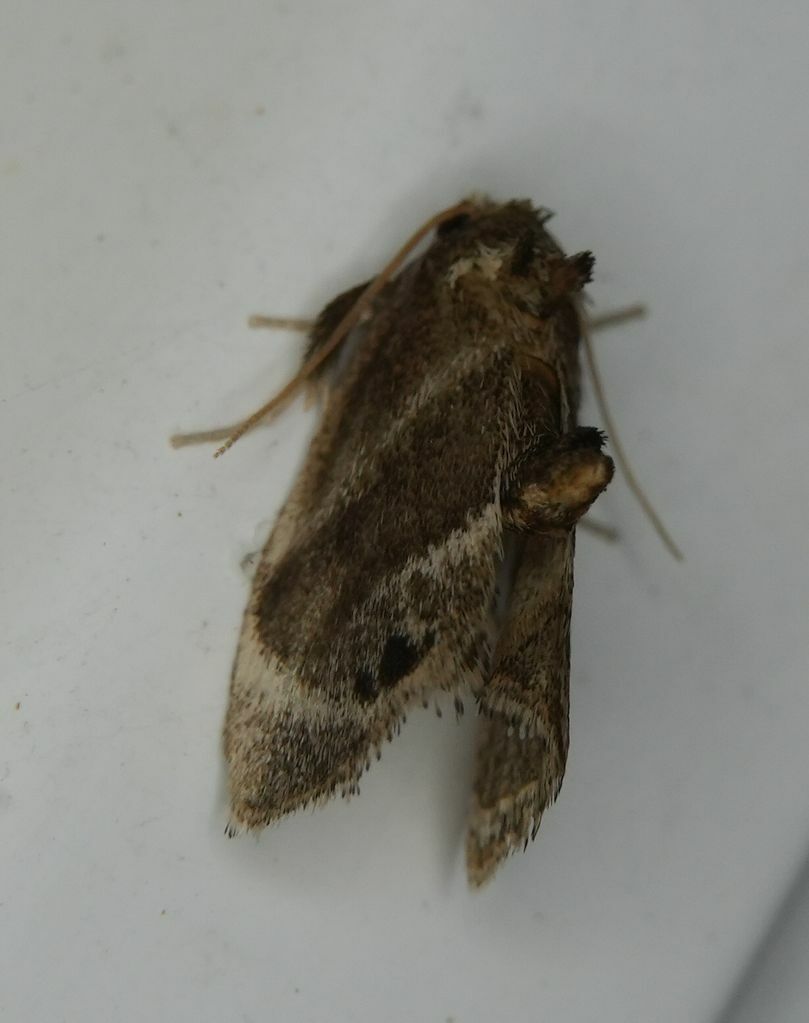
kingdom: Animalia
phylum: Arthropoda
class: Insecta
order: Lepidoptera
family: Limacodidae
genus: Packardia
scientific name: Packardia elegans
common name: Elegant tailed slug moth
